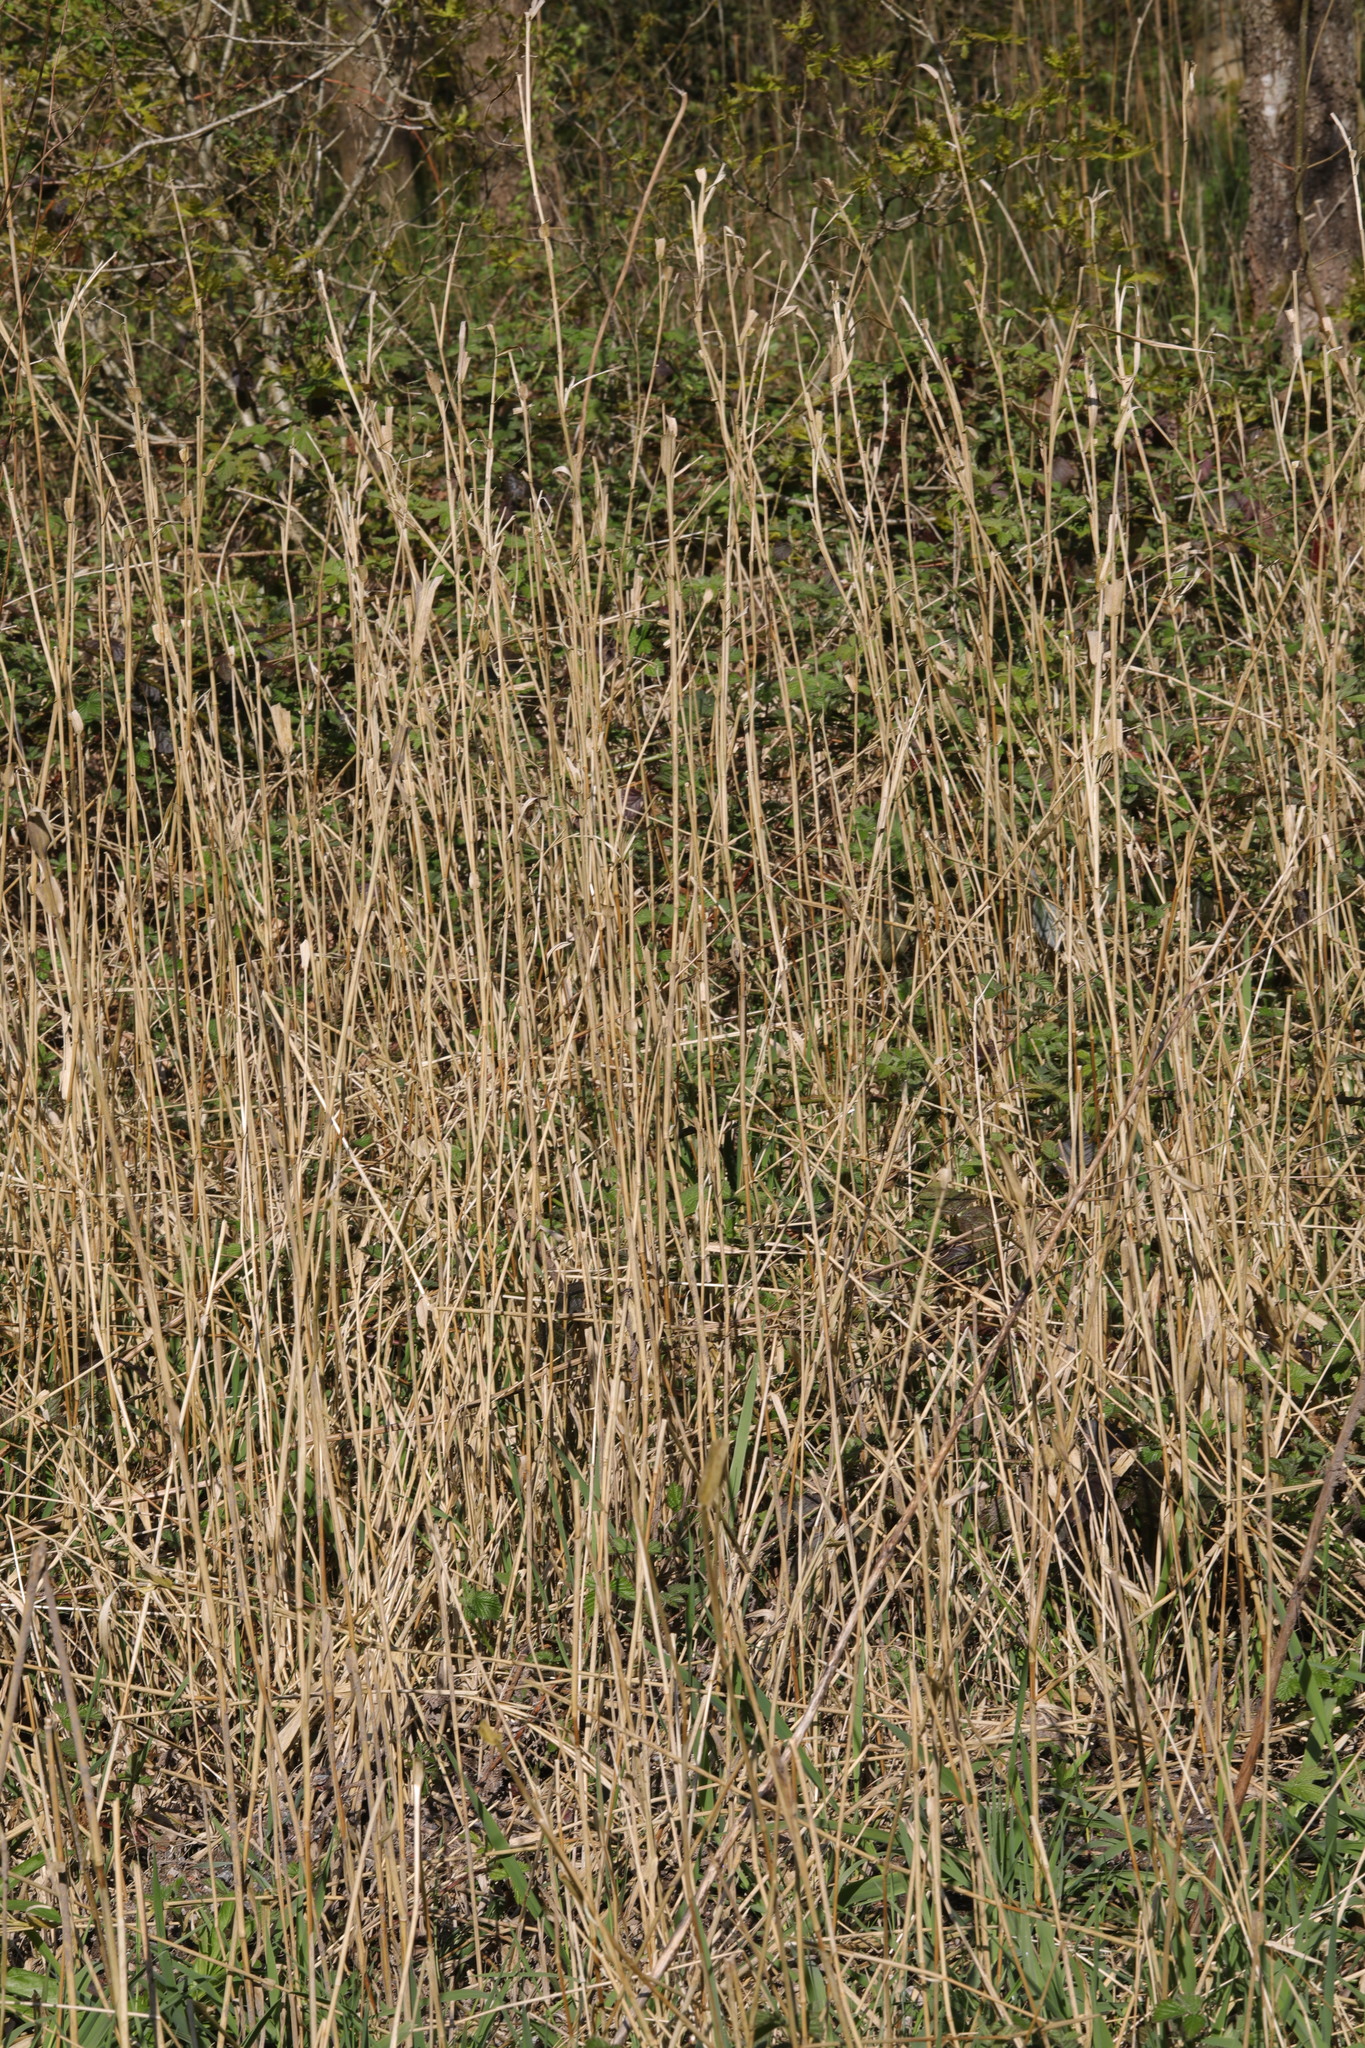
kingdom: Plantae
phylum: Tracheophyta
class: Liliopsida
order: Poales
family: Poaceae
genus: Phalaris
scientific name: Phalaris arundinacea
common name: Reed canary-grass
